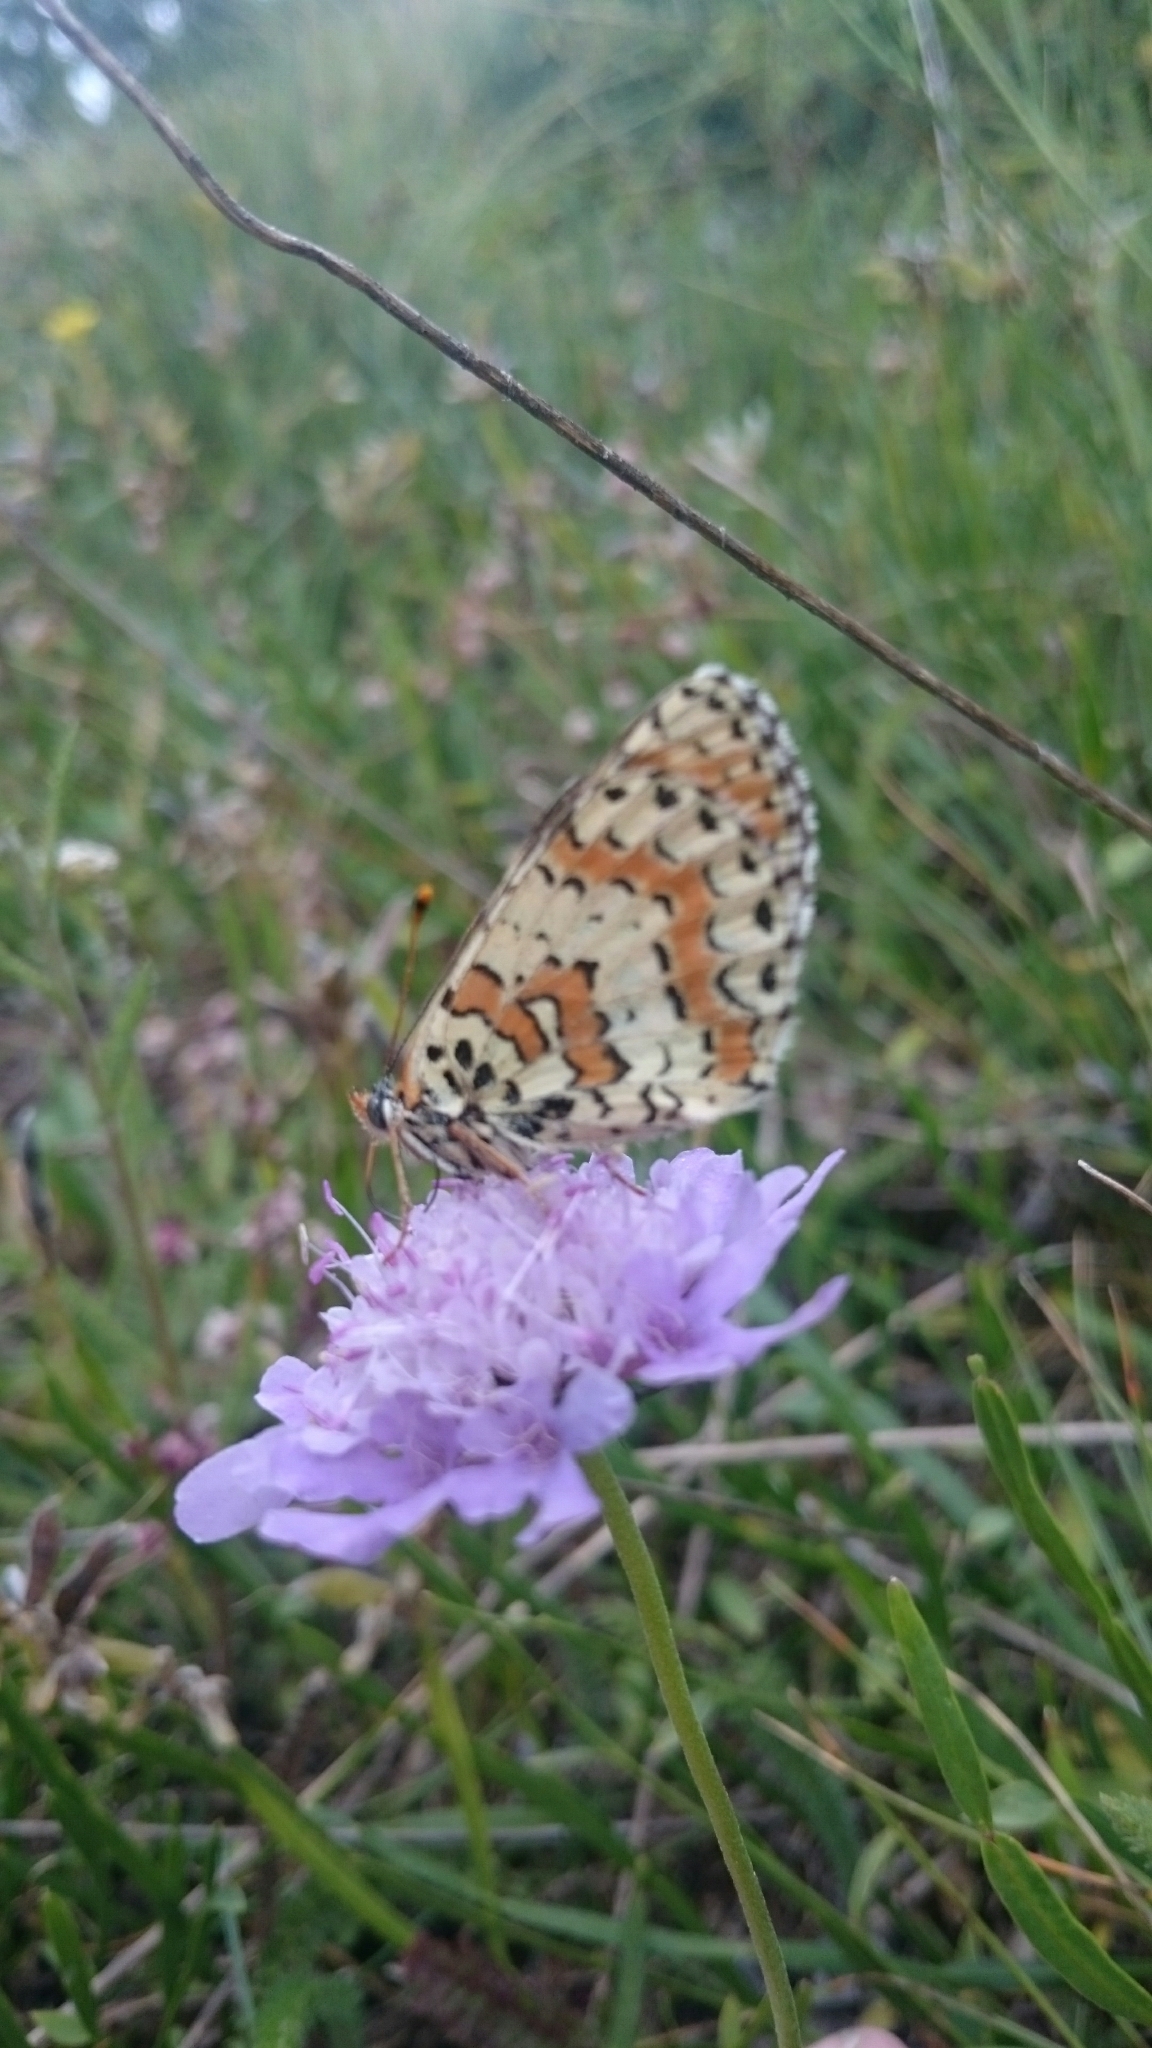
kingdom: Animalia
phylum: Arthropoda
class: Insecta
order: Lepidoptera
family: Nymphalidae
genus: Melitaea
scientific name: Melitaea didyma
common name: Spotted fritillary
